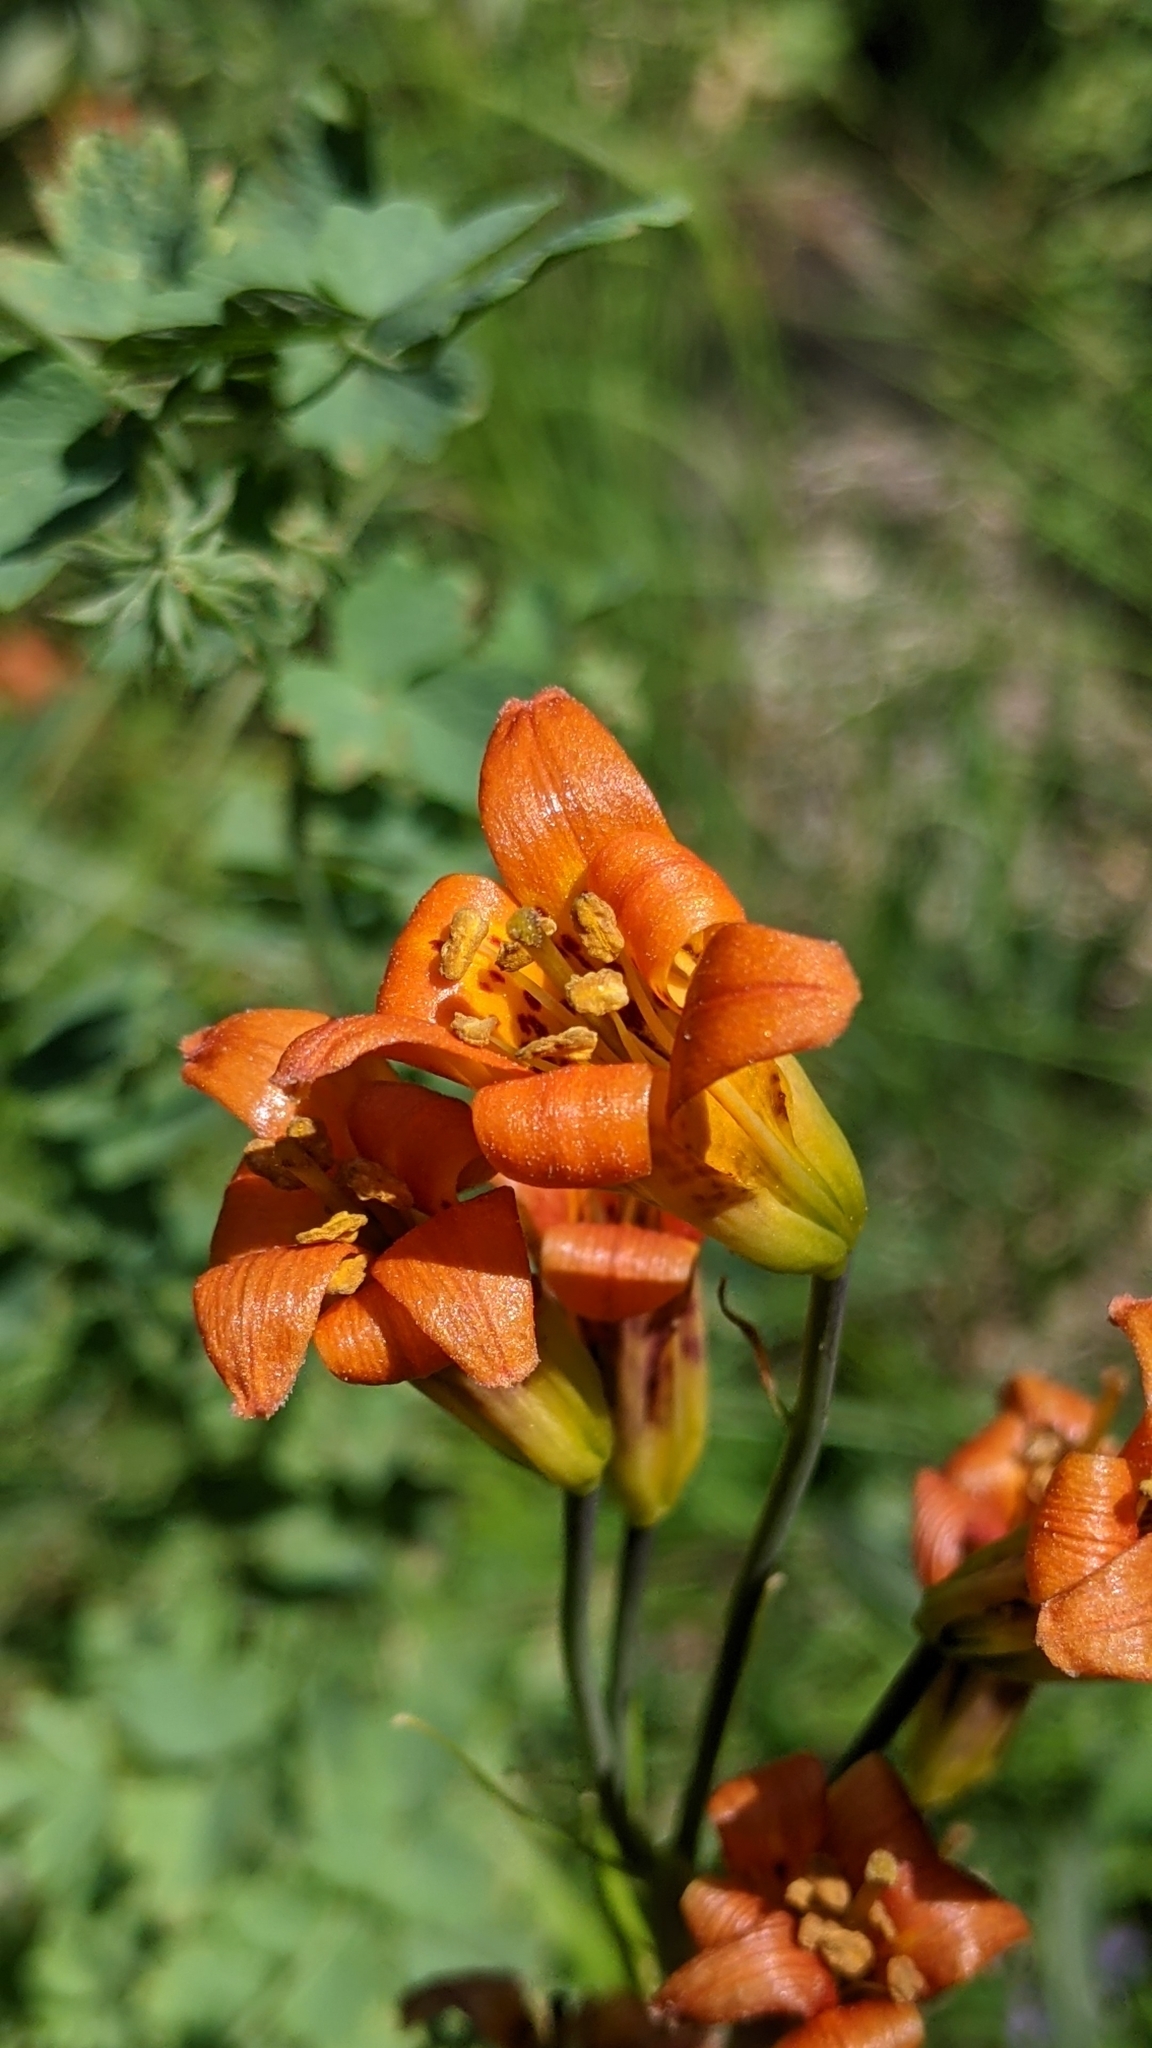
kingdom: Plantae
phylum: Tracheophyta
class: Liliopsida
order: Liliales
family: Liliaceae
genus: Lilium
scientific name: Lilium parvum
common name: Alpine lily
